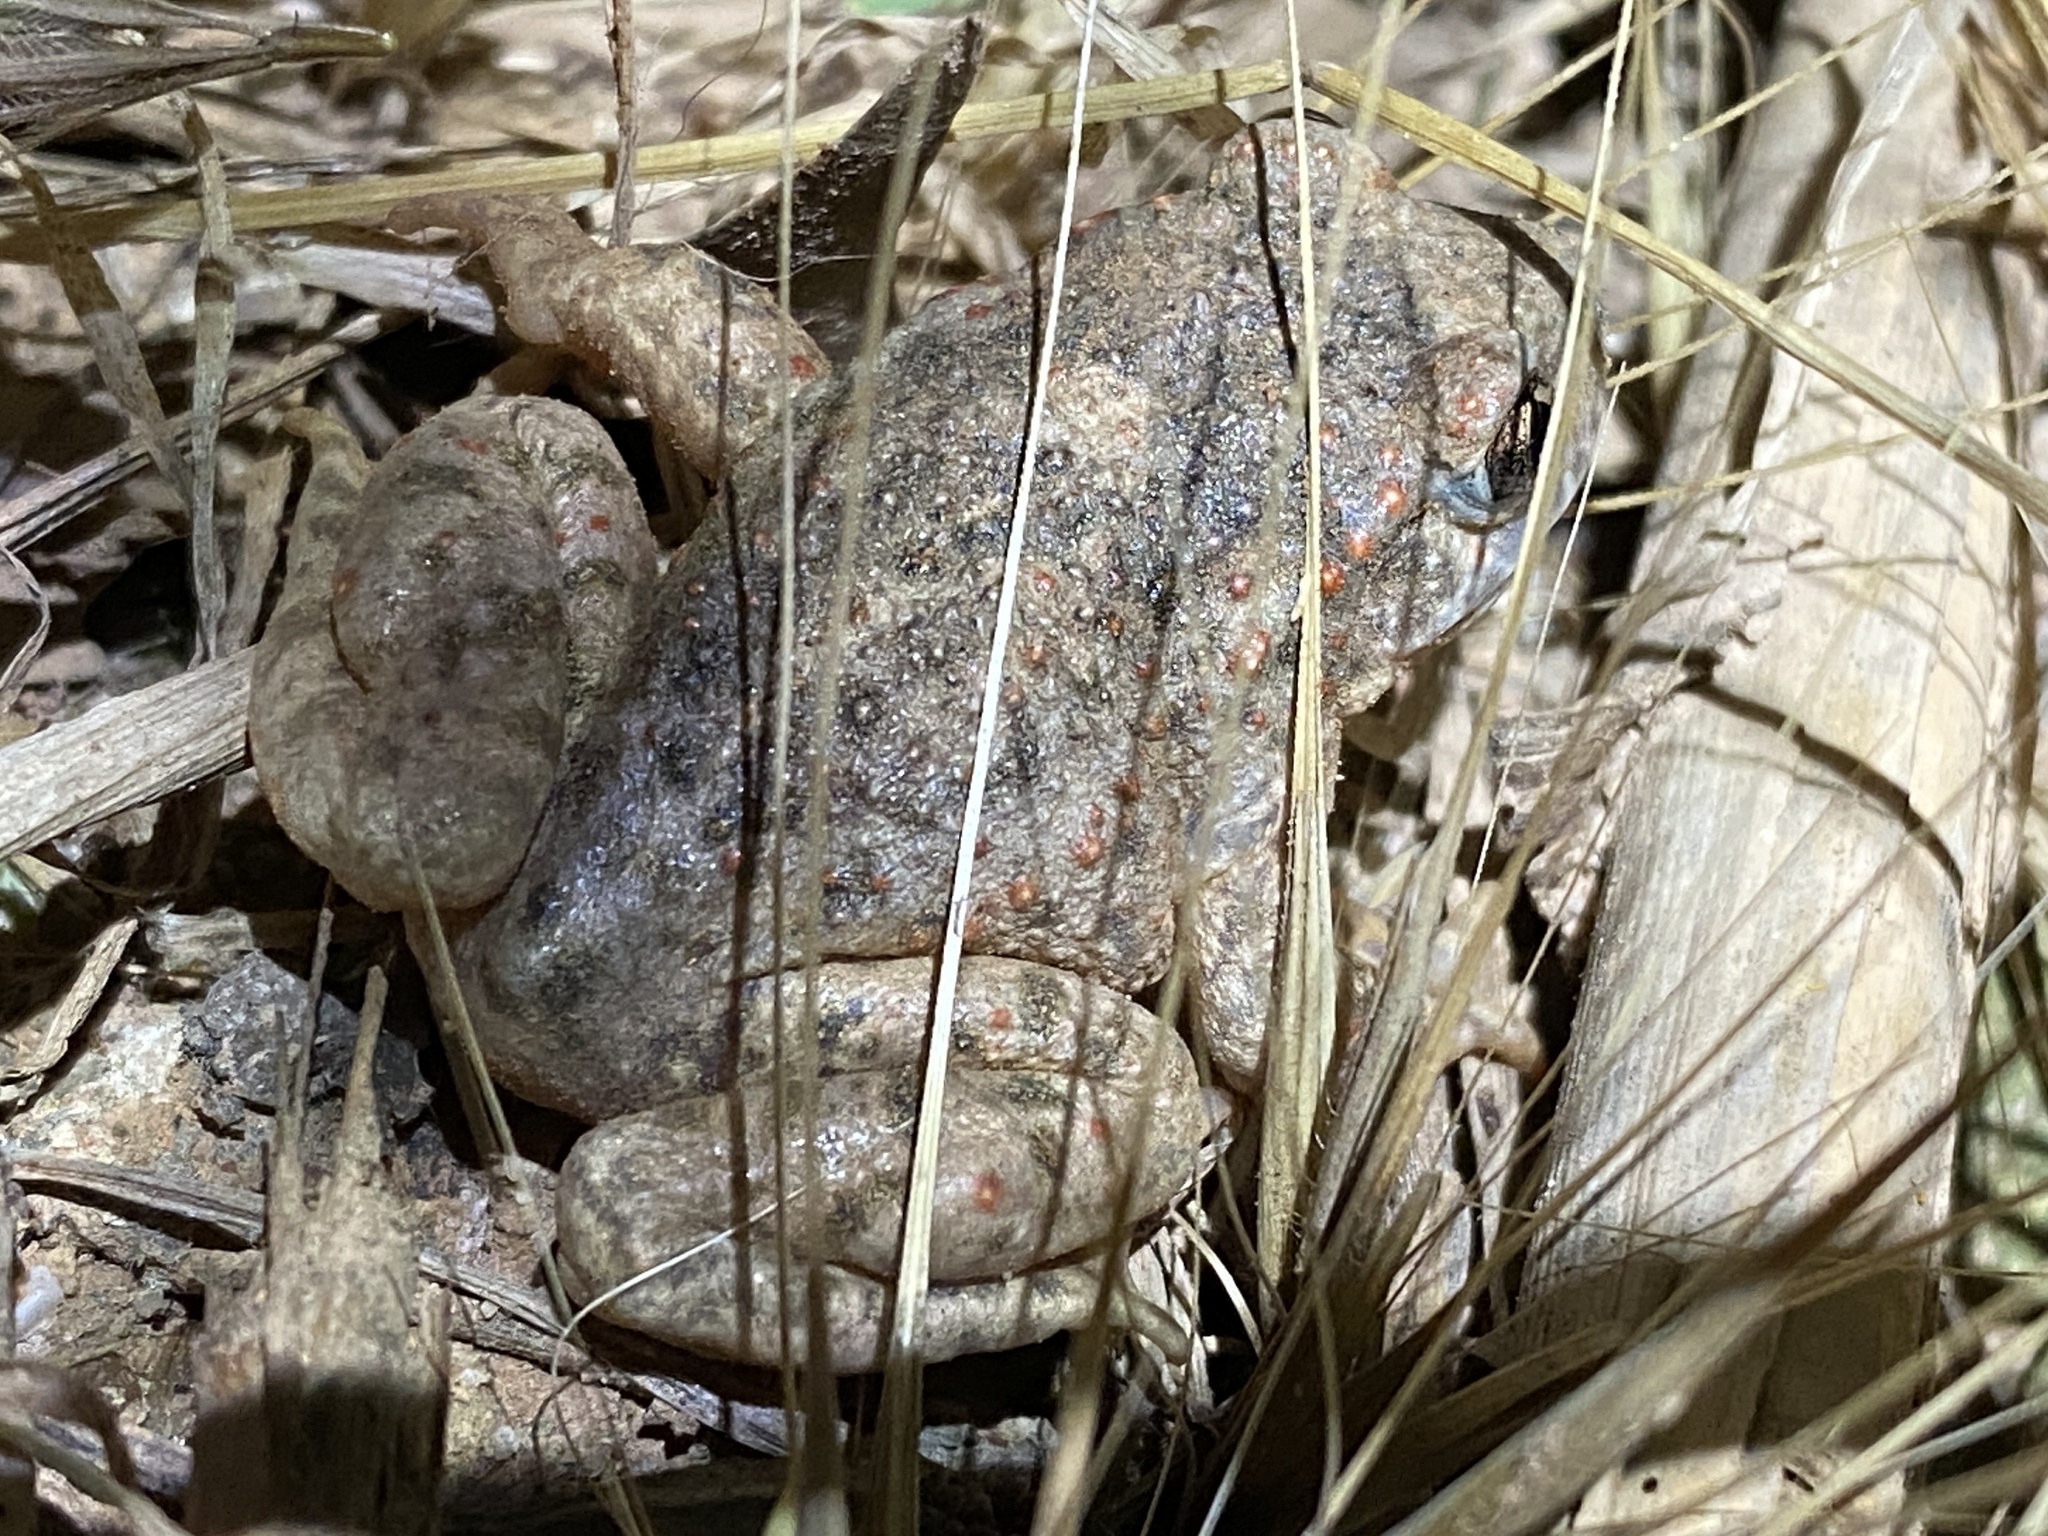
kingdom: Animalia
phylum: Chordata
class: Amphibia
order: Anura
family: Alytidae
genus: Alytes
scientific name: Alytes obstetricans
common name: Midwife toad
